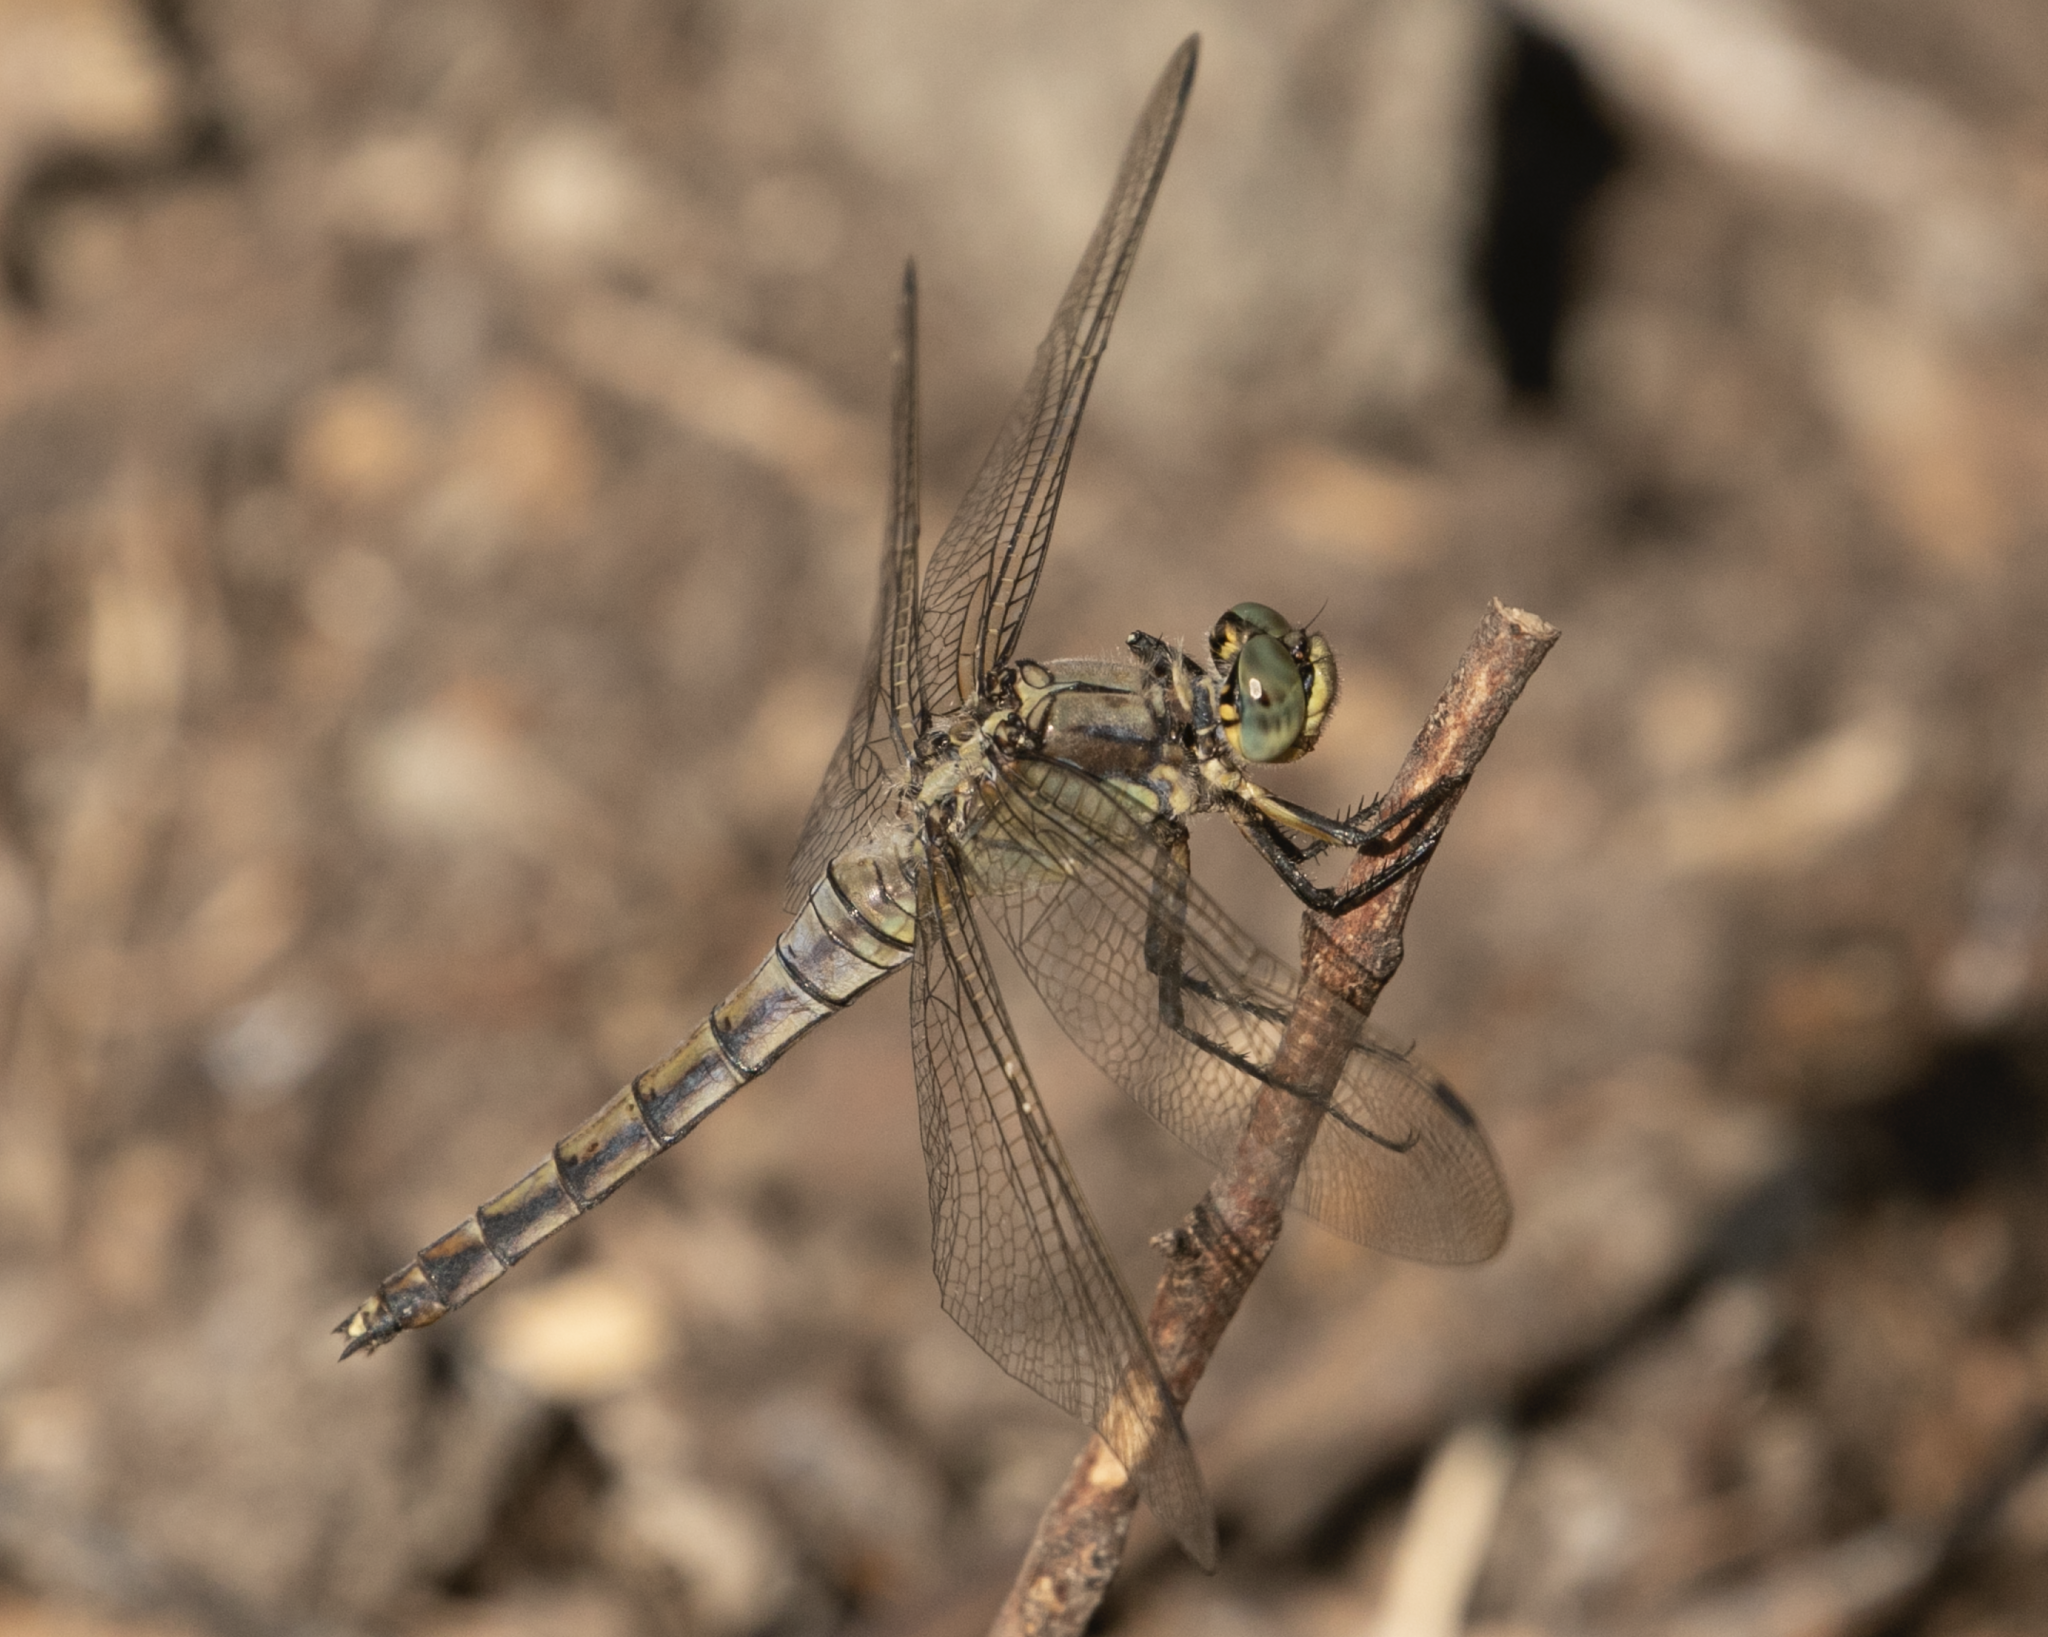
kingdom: Animalia
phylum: Arthropoda
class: Insecta
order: Odonata
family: Libellulidae
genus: Orthetrum
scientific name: Orthetrum cancellatum
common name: Black-tailed skimmer
